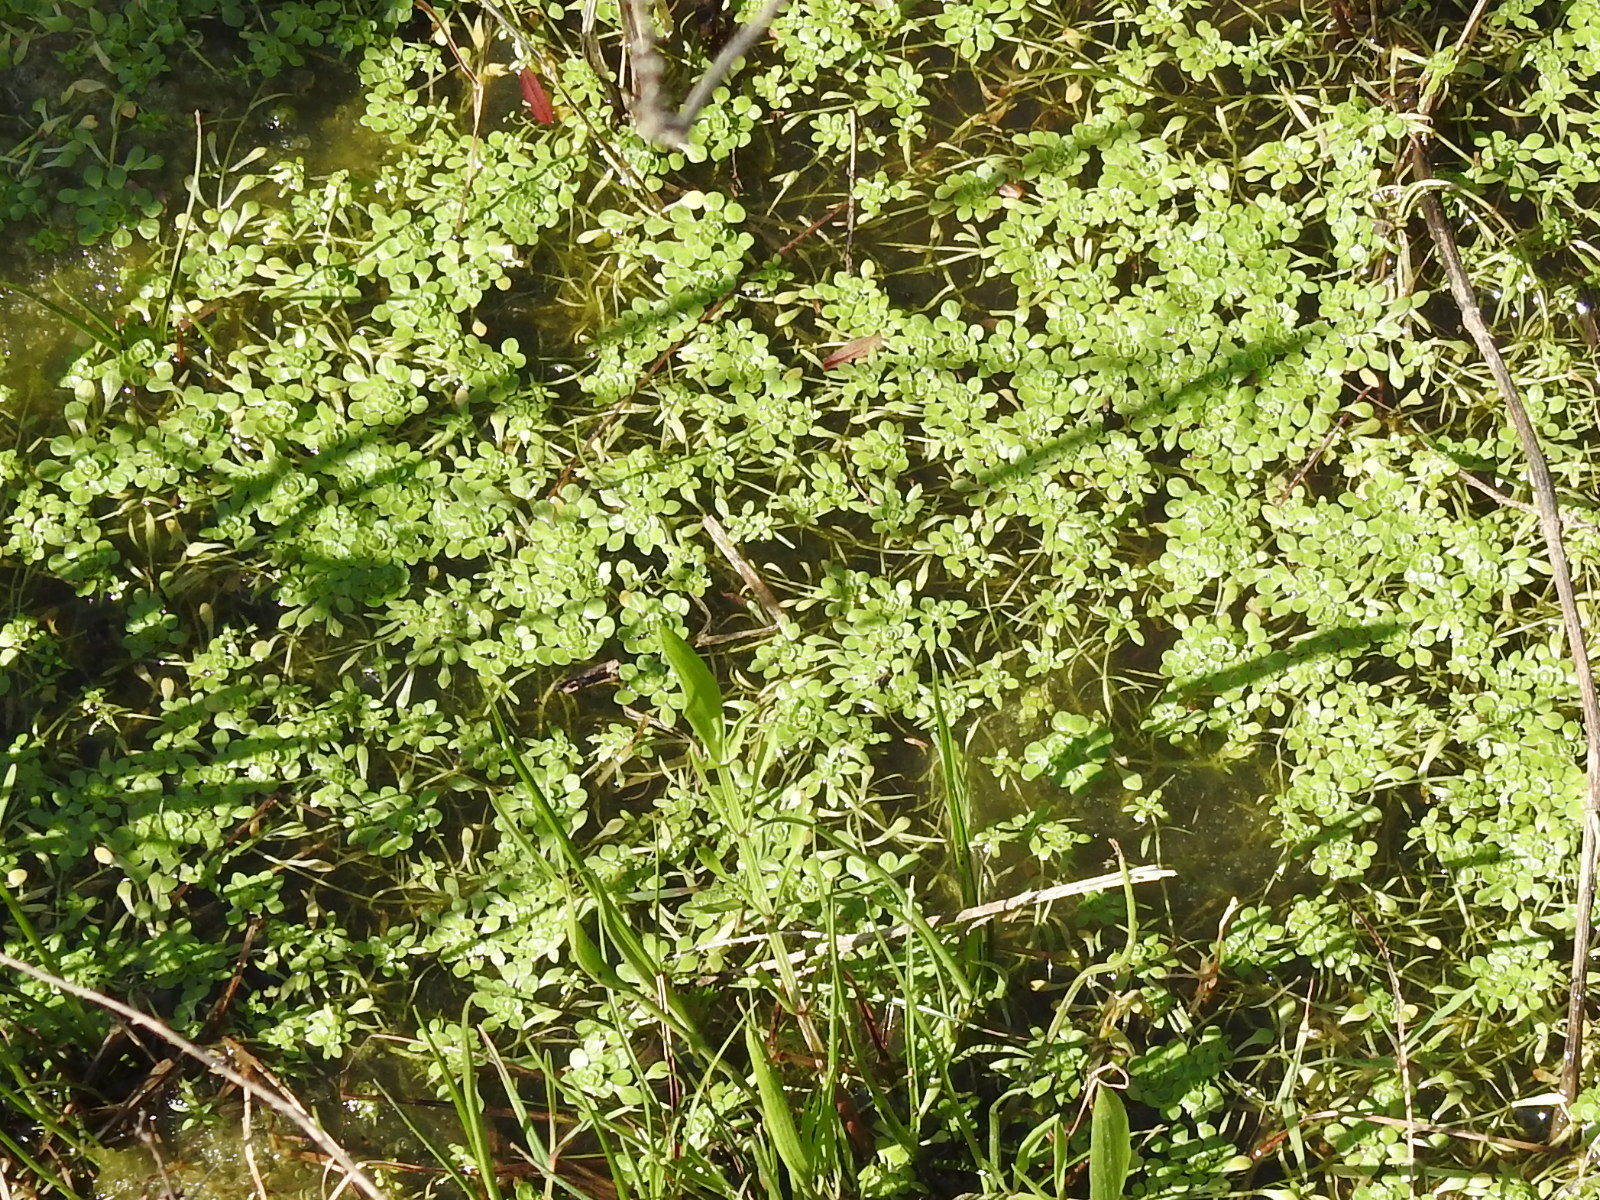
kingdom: Plantae
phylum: Tracheophyta
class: Magnoliopsida
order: Lamiales
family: Plantaginaceae
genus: Callitriche
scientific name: Callitriche heterophylla
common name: Two-headed water-starwort
